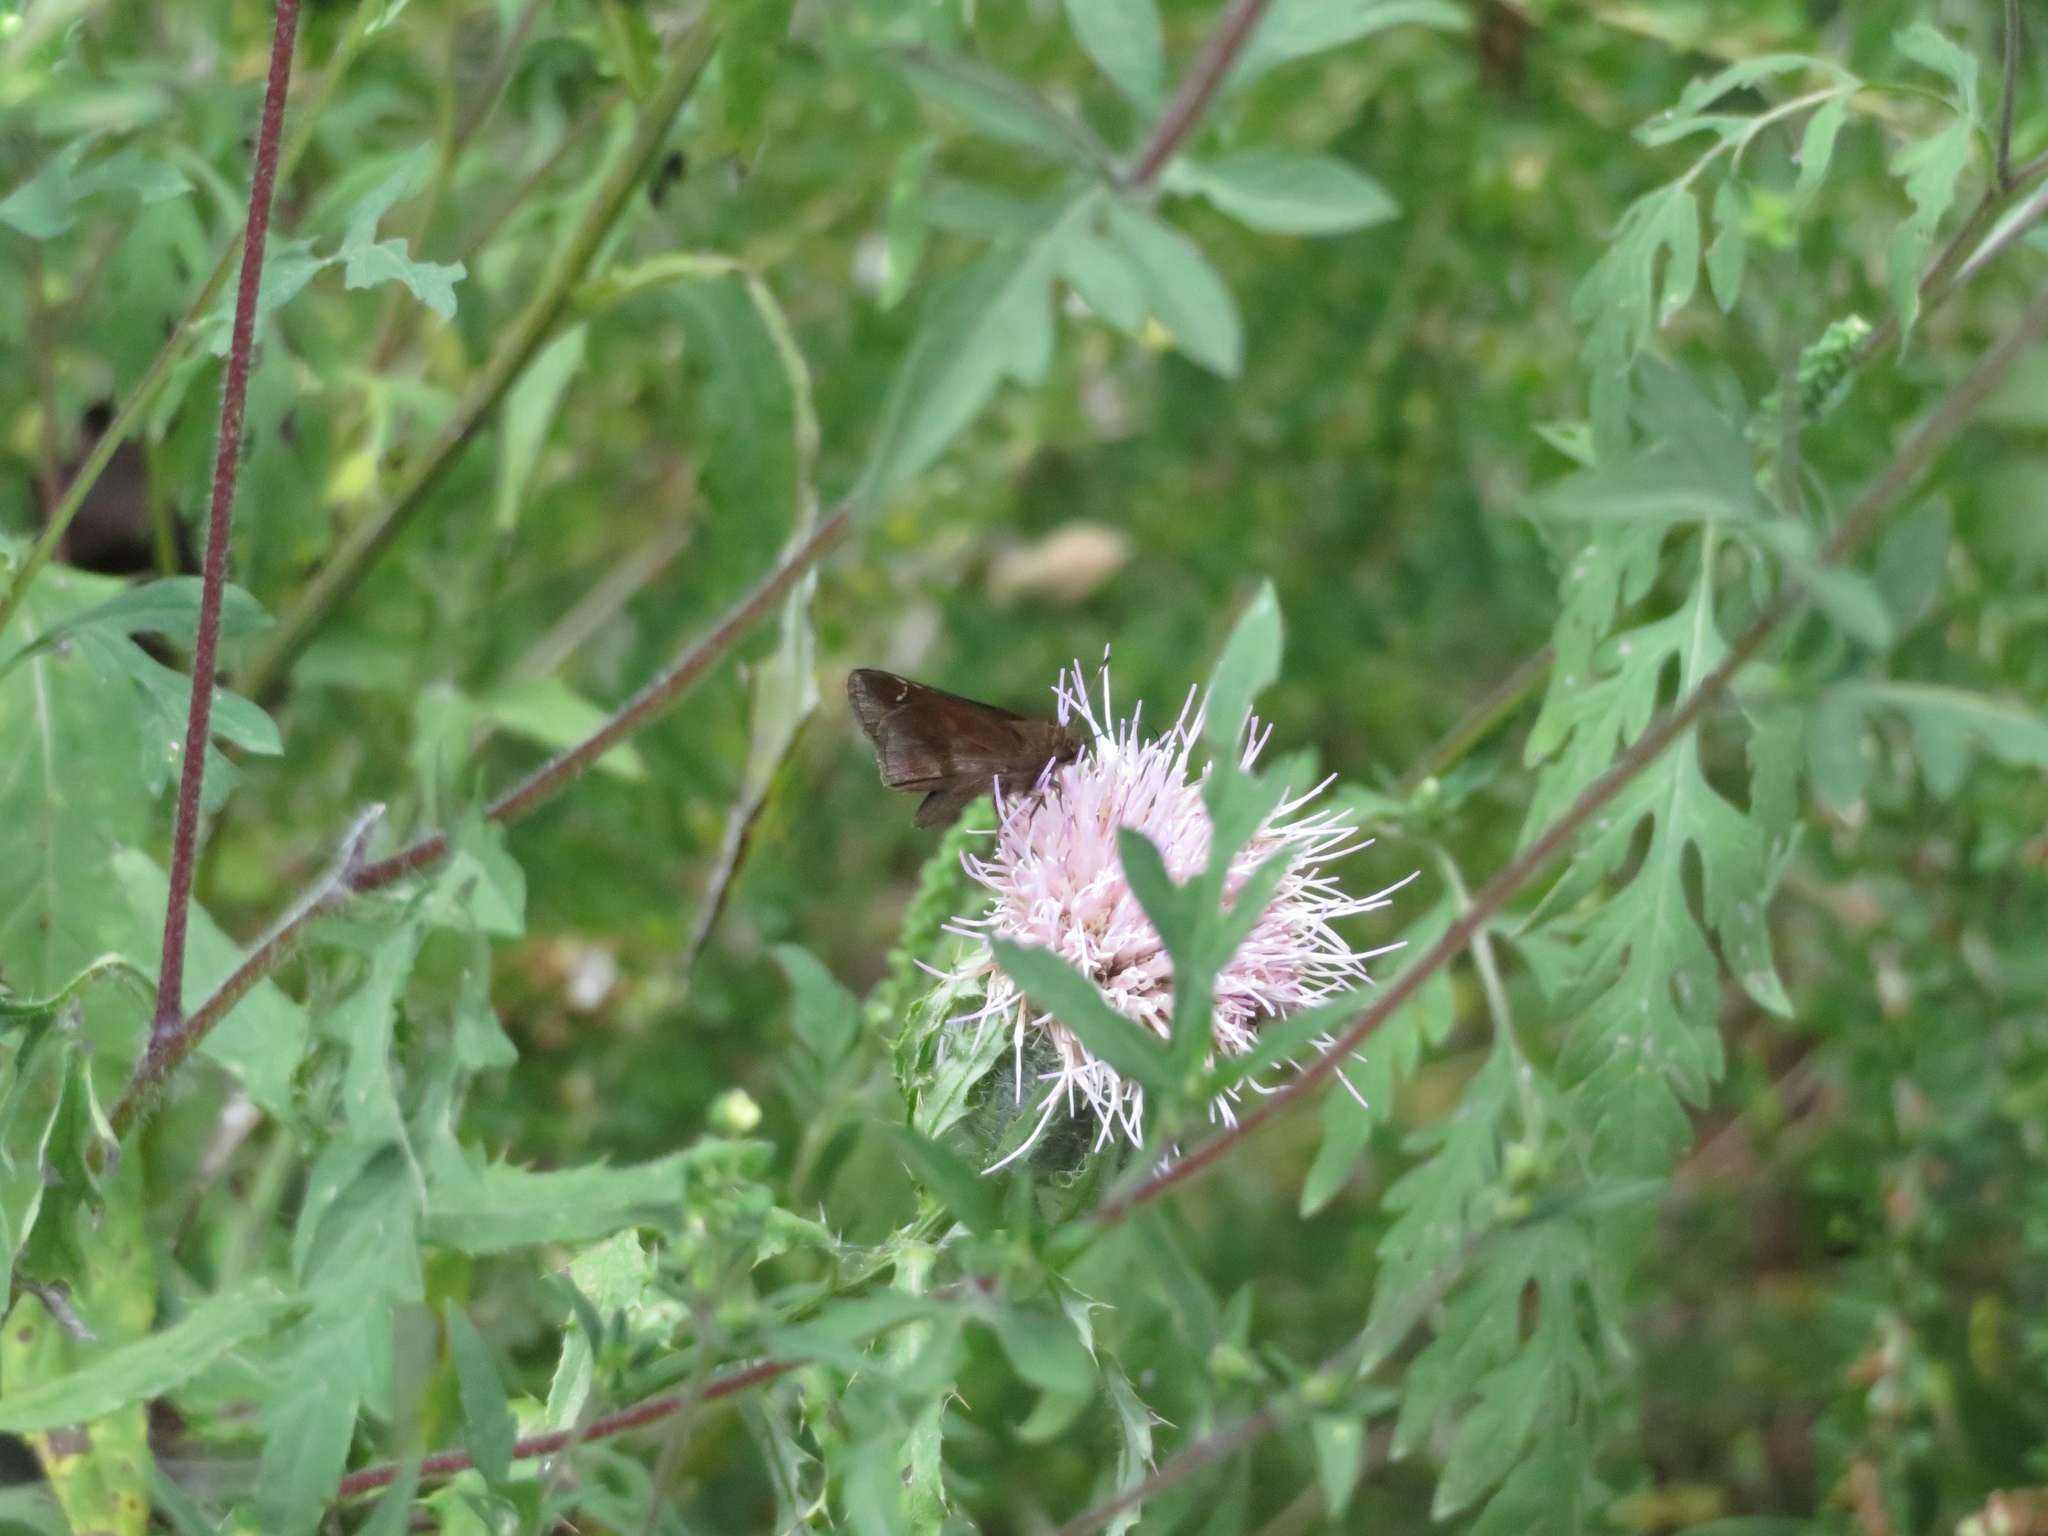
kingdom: Animalia
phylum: Arthropoda
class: Insecta
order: Lepidoptera
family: Hesperiidae
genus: Lerema
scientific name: Lerema accius
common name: Clouded skipper
